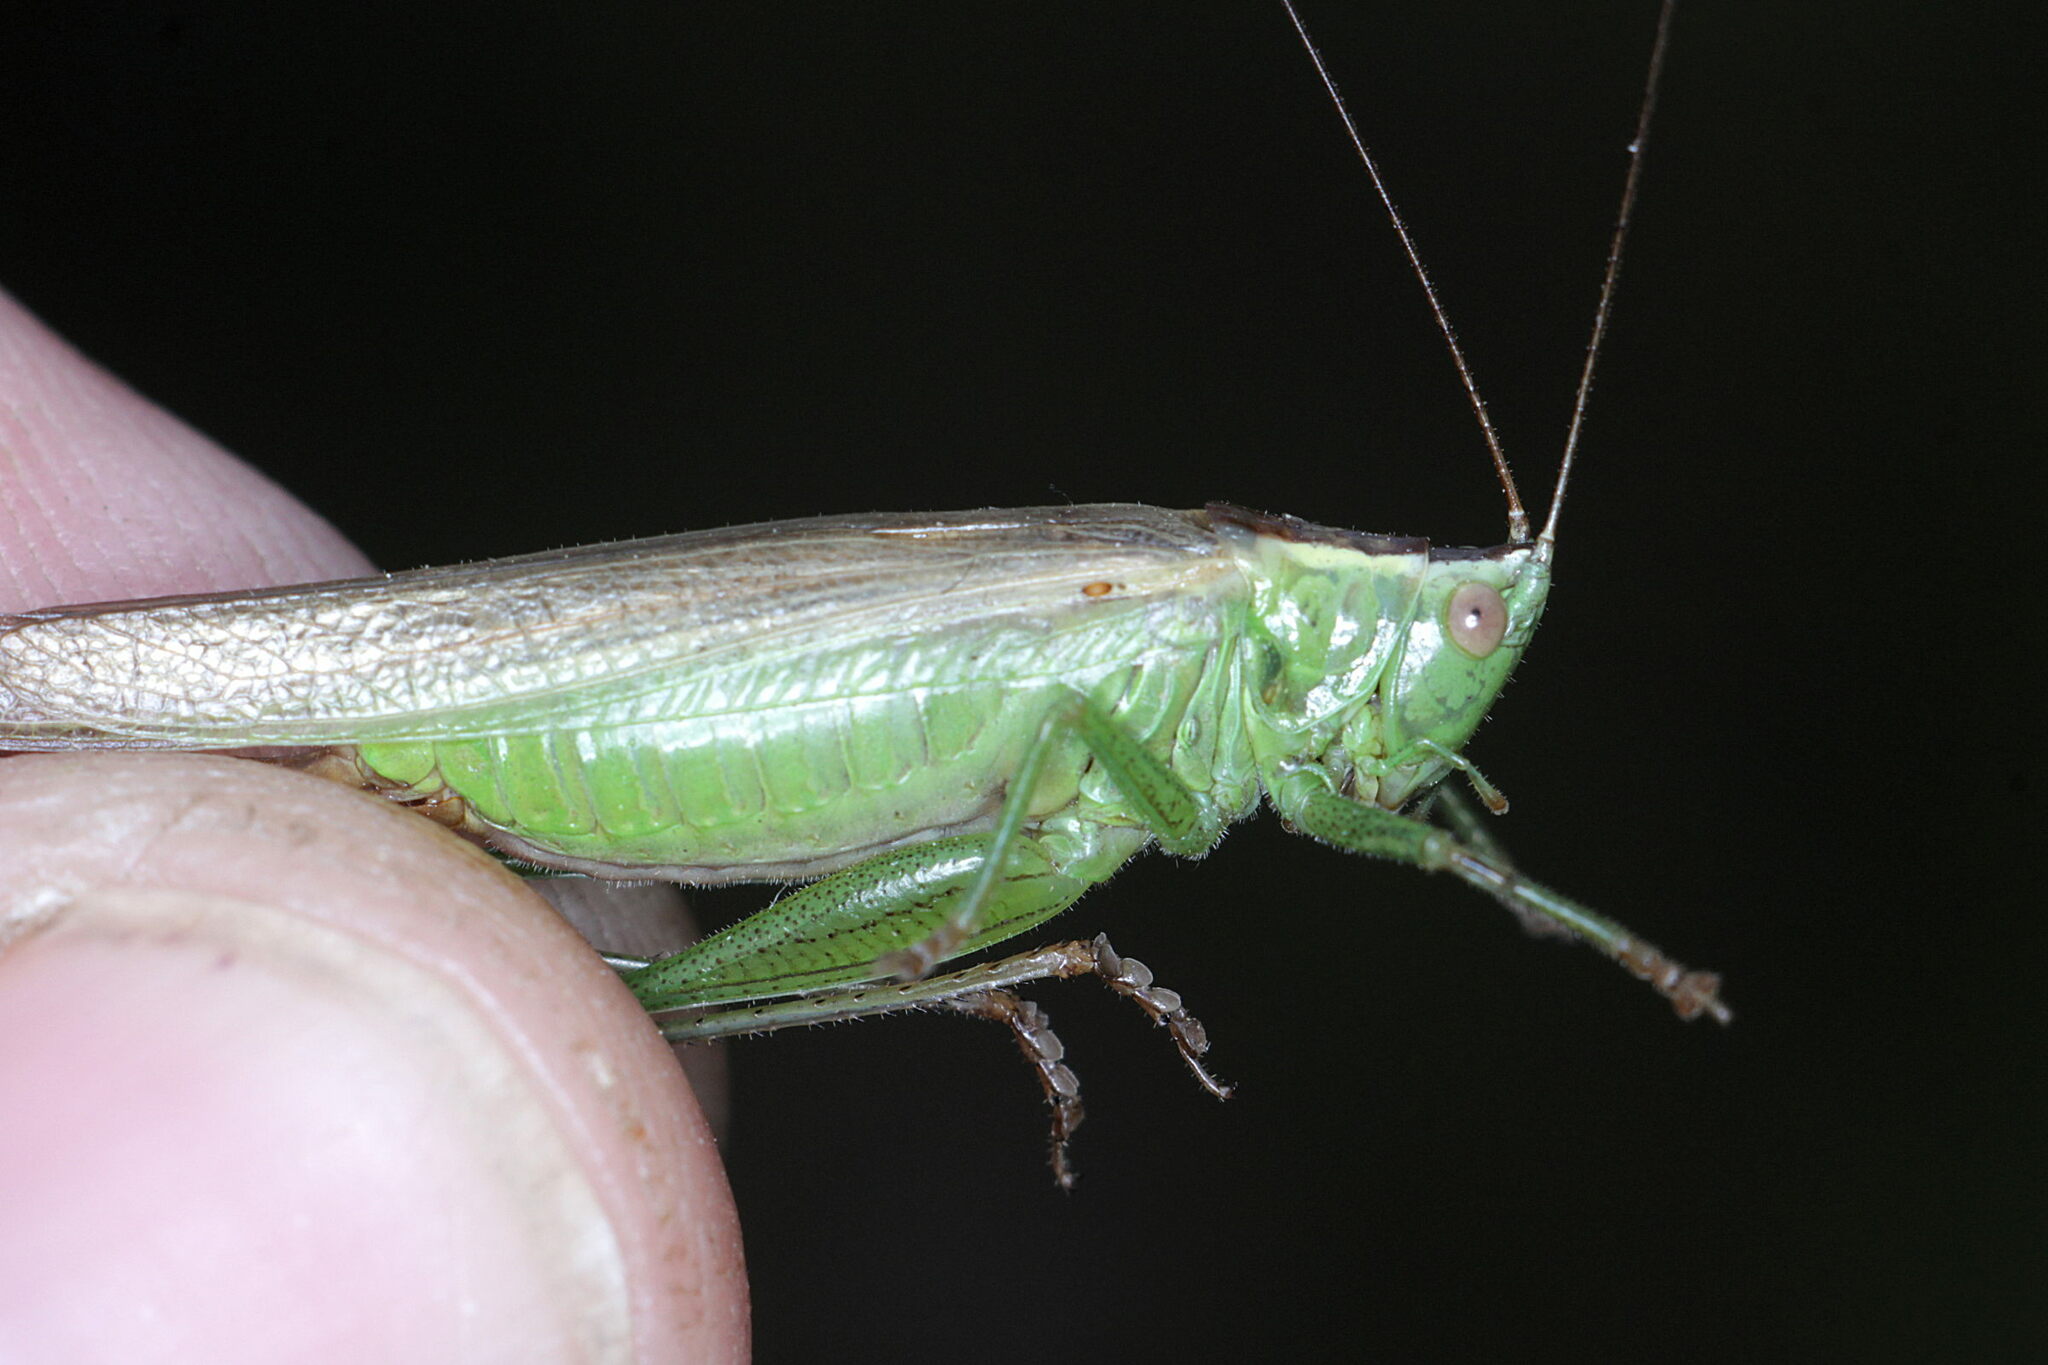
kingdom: Animalia
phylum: Arthropoda
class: Insecta
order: Orthoptera
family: Tettigoniidae
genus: Conocephalus
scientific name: Conocephalus fuscus
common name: Long-winged conehead
